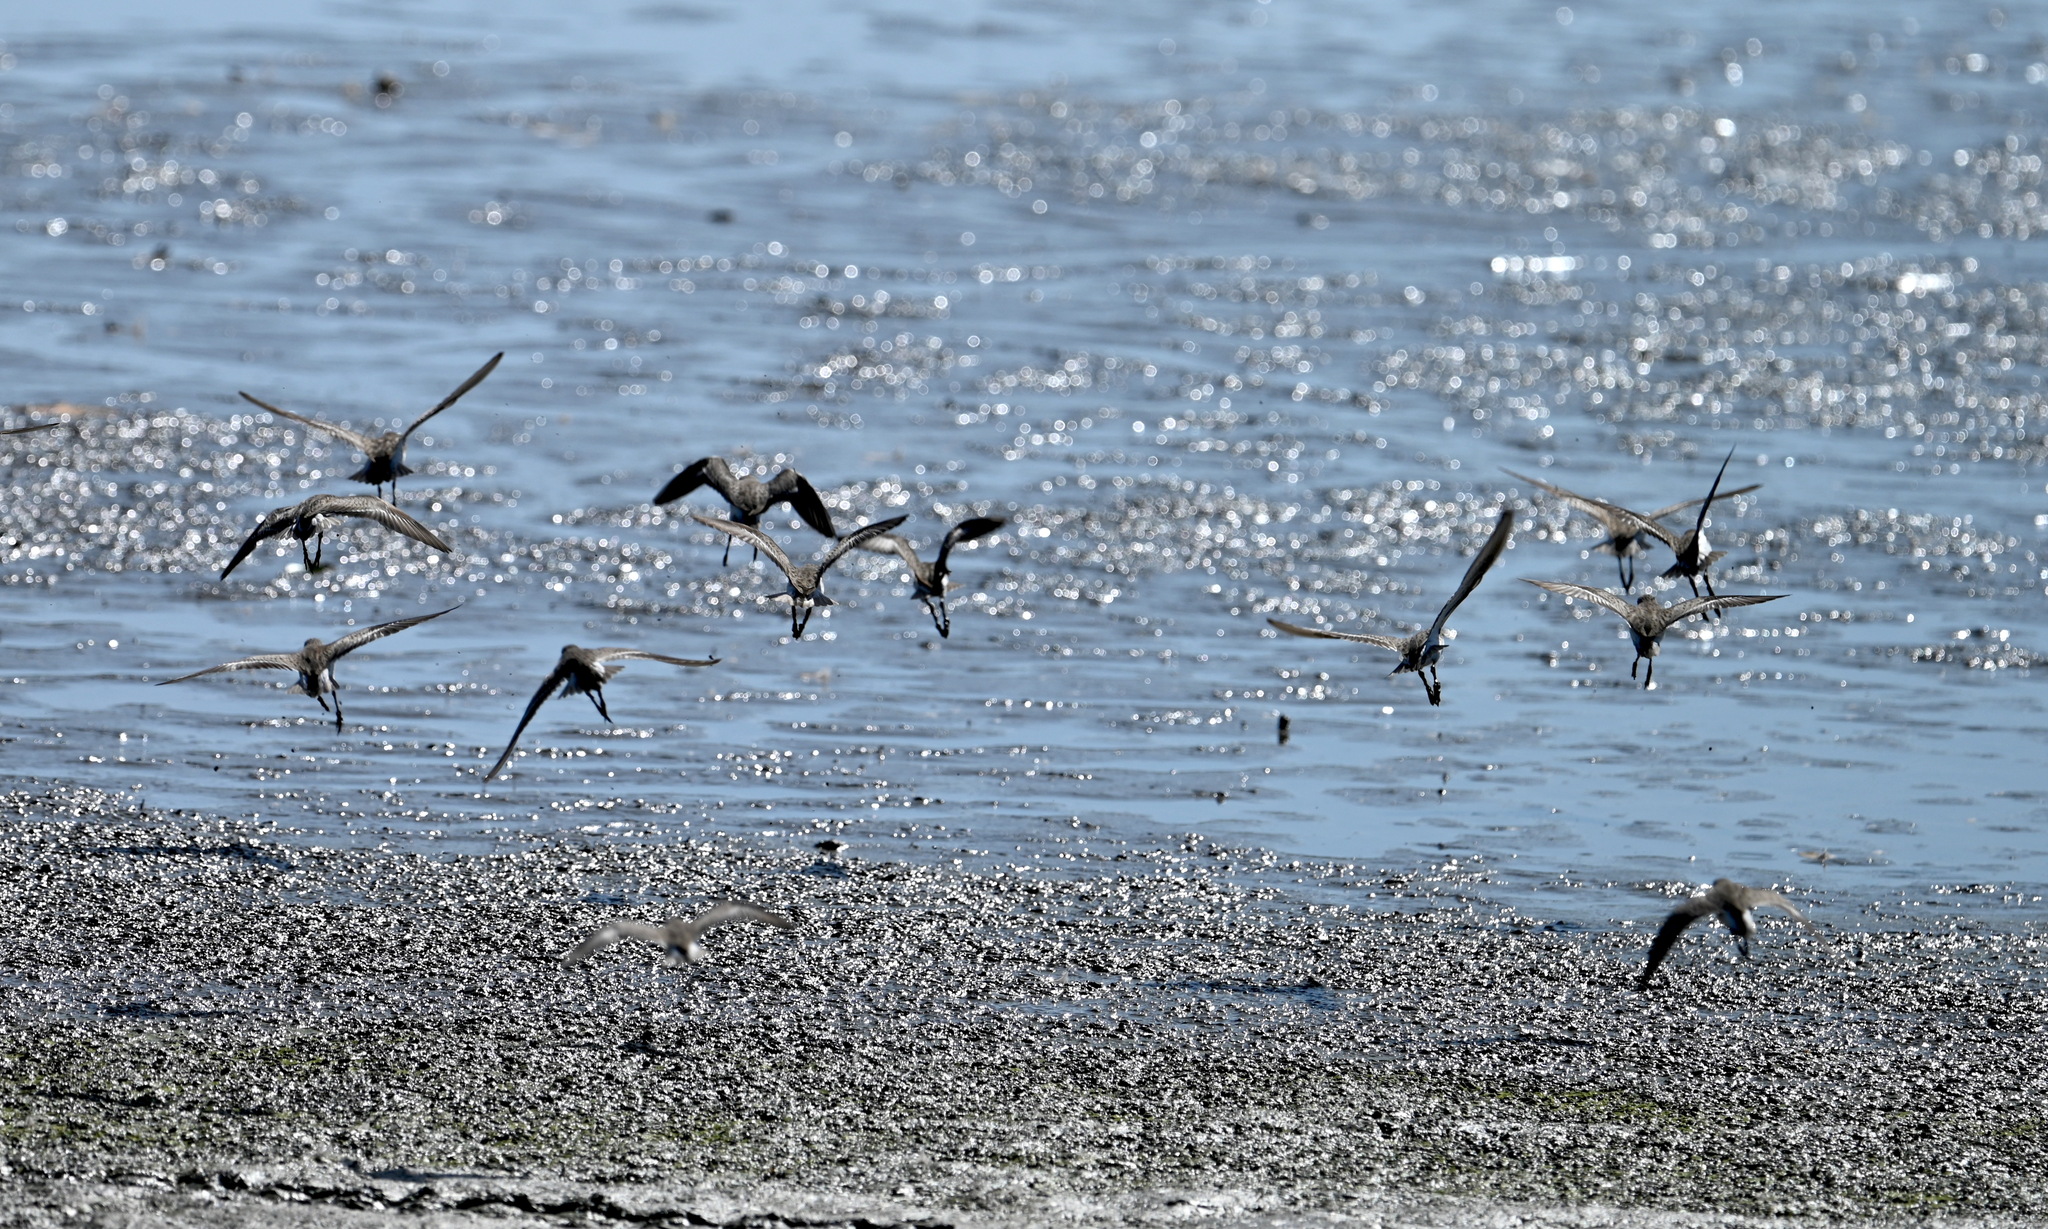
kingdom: Animalia
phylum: Chordata
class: Aves
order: Charadriiformes
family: Scolopacidae
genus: Calidris
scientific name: Calidris minutilla
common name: Least sandpiper
